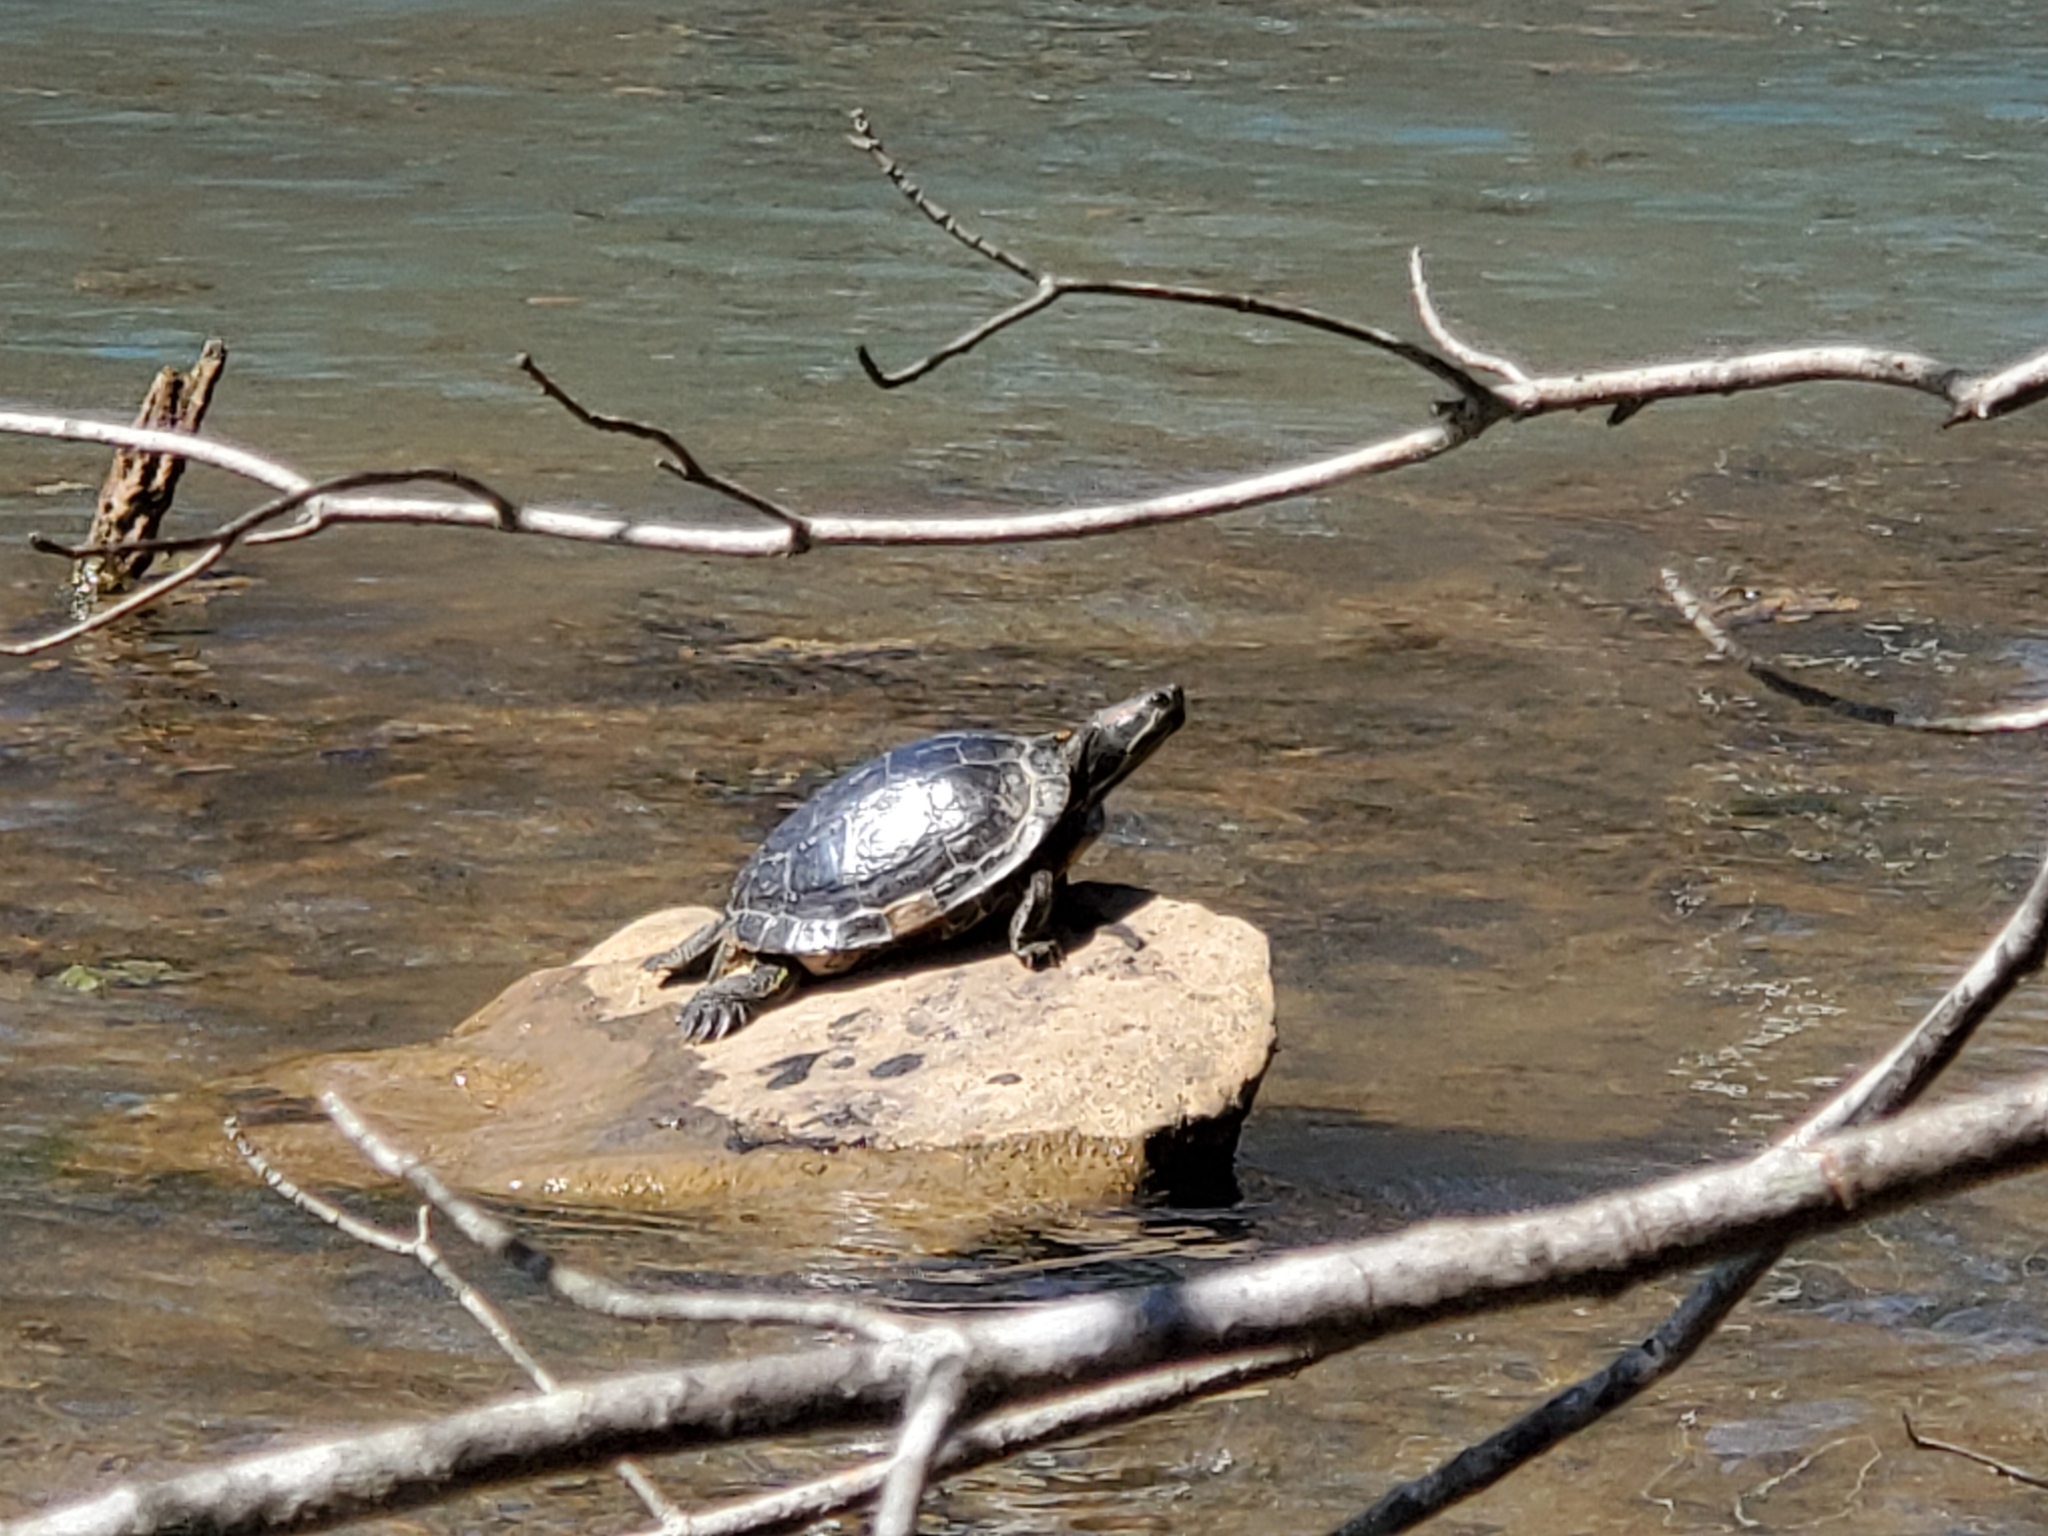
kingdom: Animalia
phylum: Chordata
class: Testudines
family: Emydidae
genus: Trachemys
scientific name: Trachemys scripta
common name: Slider
